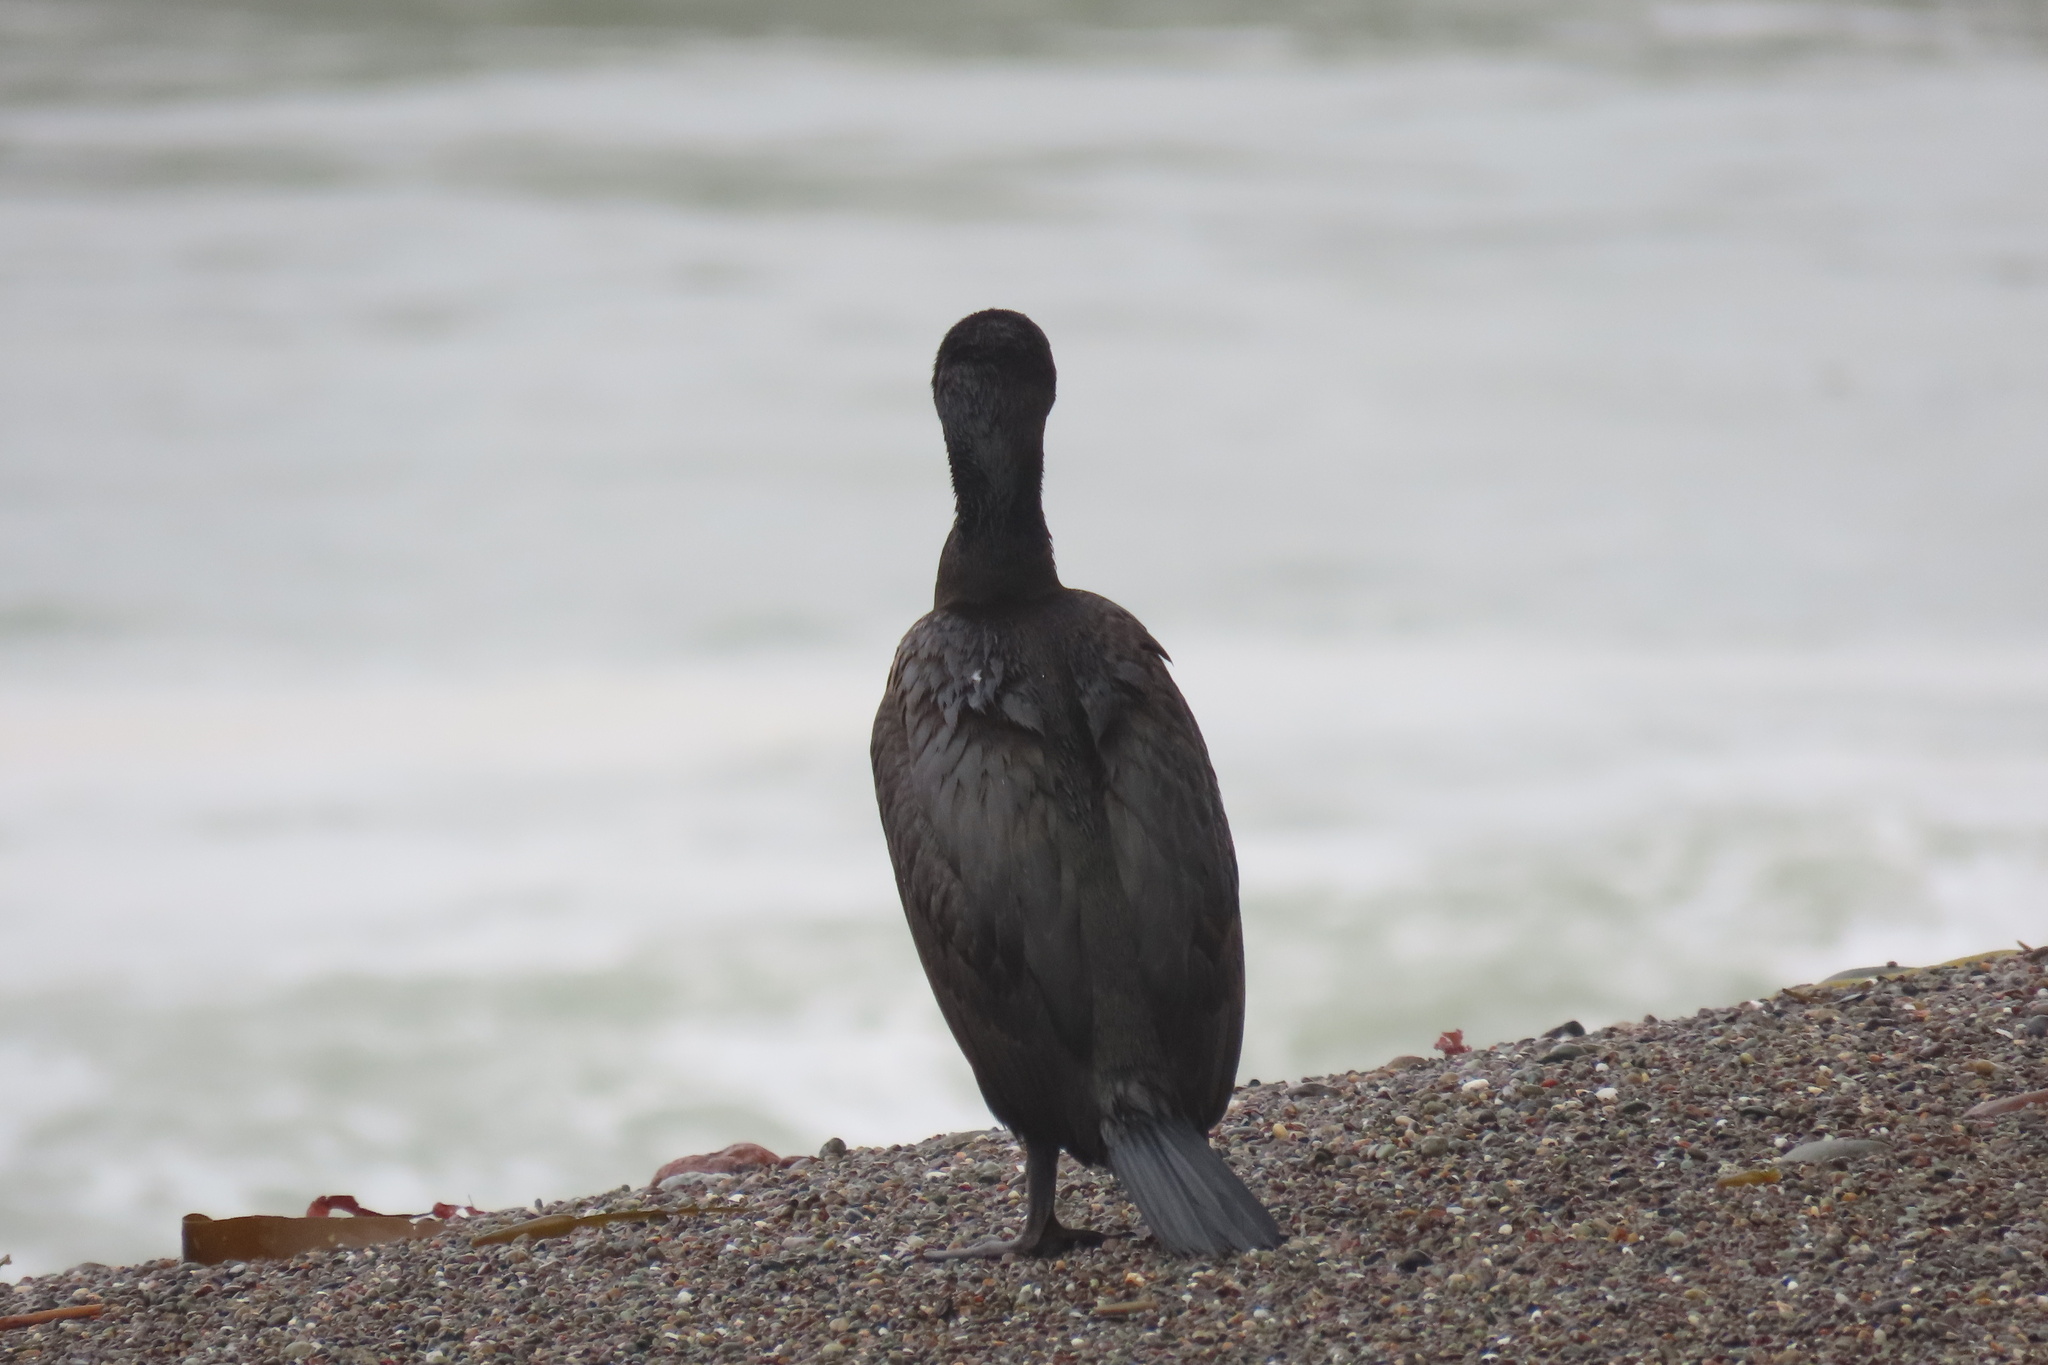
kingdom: Animalia
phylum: Chordata
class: Aves
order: Suliformes
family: Phalacrocoracidae
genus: Urile
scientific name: Urile penicillatus
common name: Brandt's cormorant
